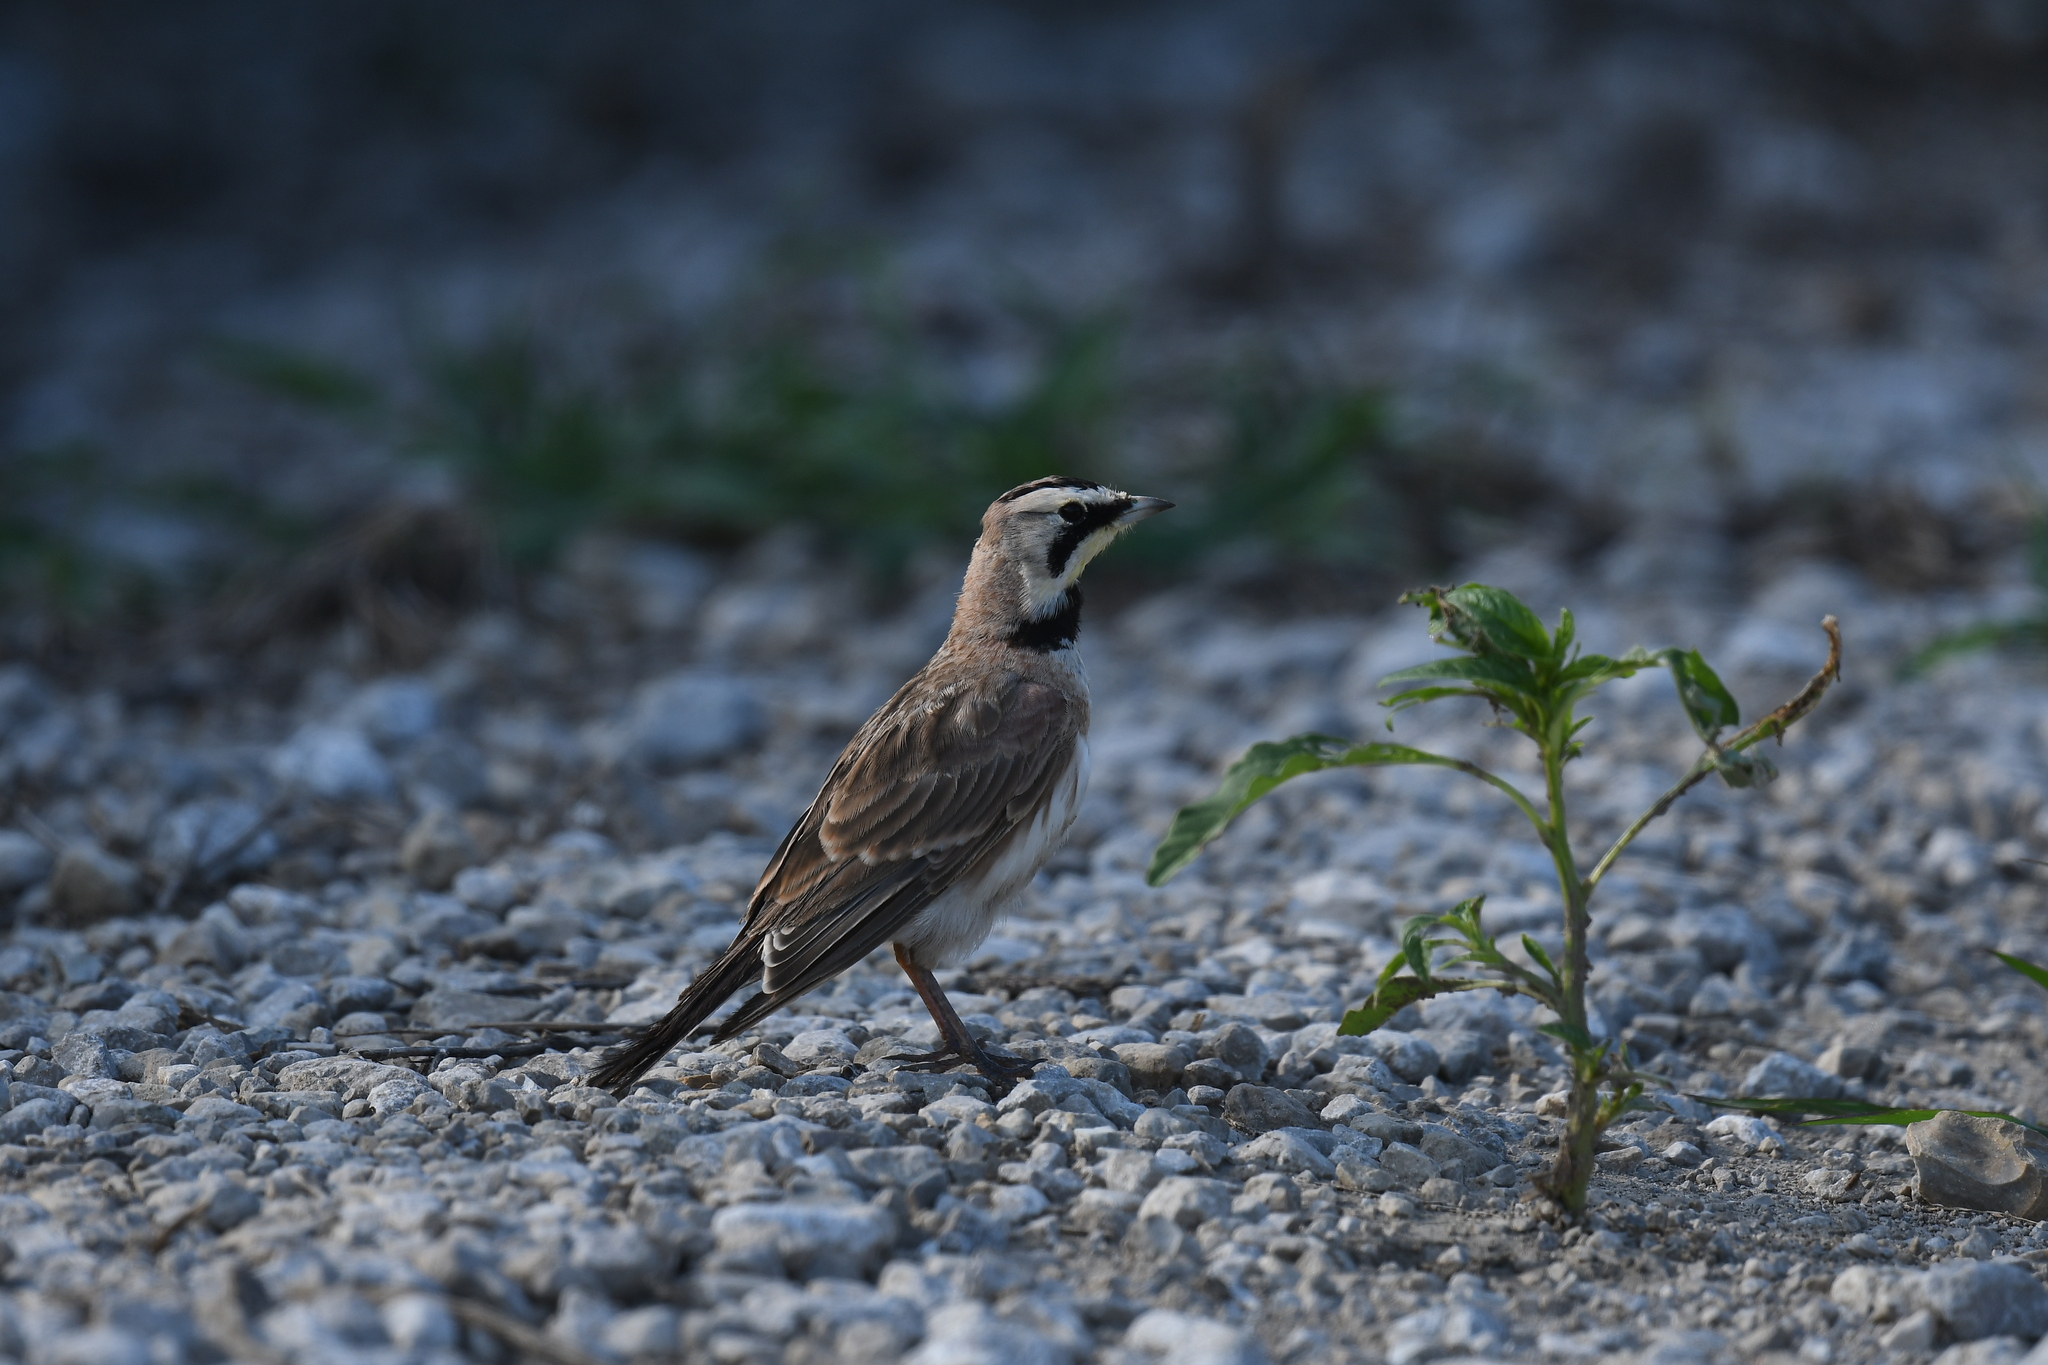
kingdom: Animalia
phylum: Chordata
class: Aves
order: Passeriformes
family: Alaudidae
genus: Eremophila
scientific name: Eremophila alpestris
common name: Horned lark
